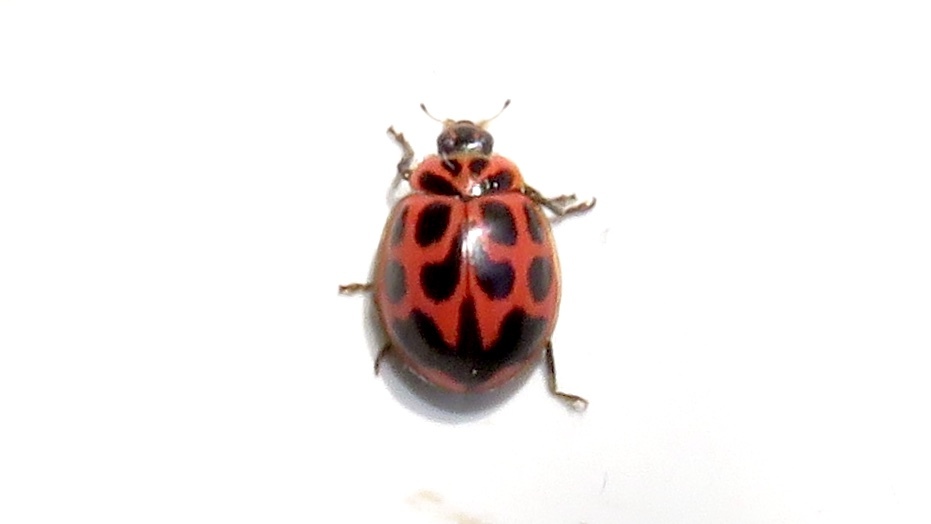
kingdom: Animalia
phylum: Arthropoda
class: Insecta
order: Coleoptera
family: Coccinellidae
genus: Neoharmonia
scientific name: Neoharmonia venusta
